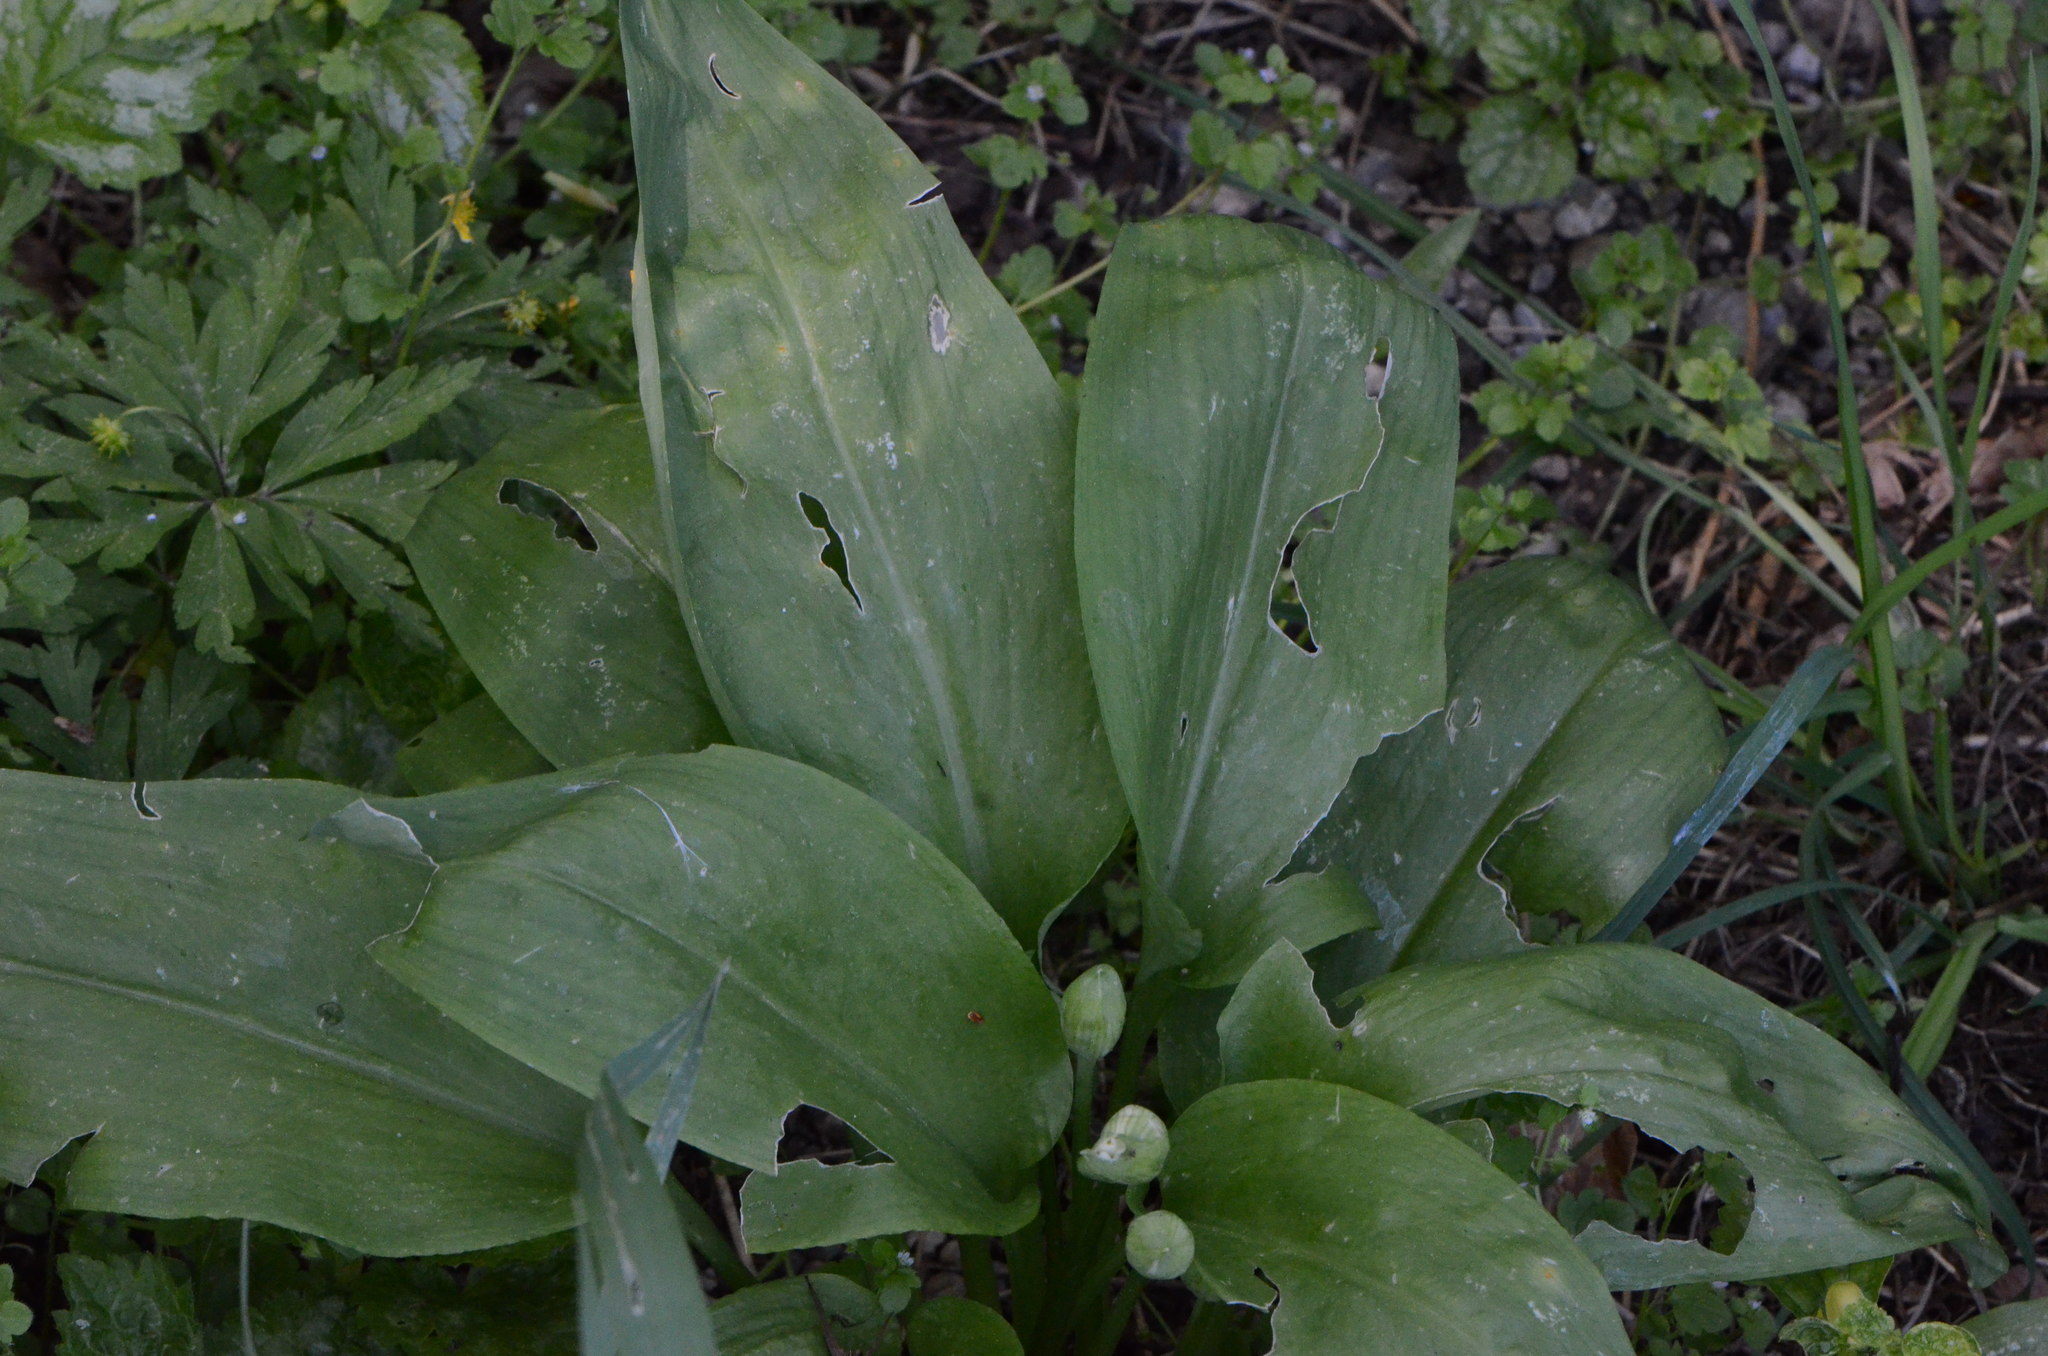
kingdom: Plantae
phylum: Tracheophyta
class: Liliopsida
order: Asparagales
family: Amaryllidaceae
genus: Allium
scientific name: Allium ursinum
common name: Ramsons
